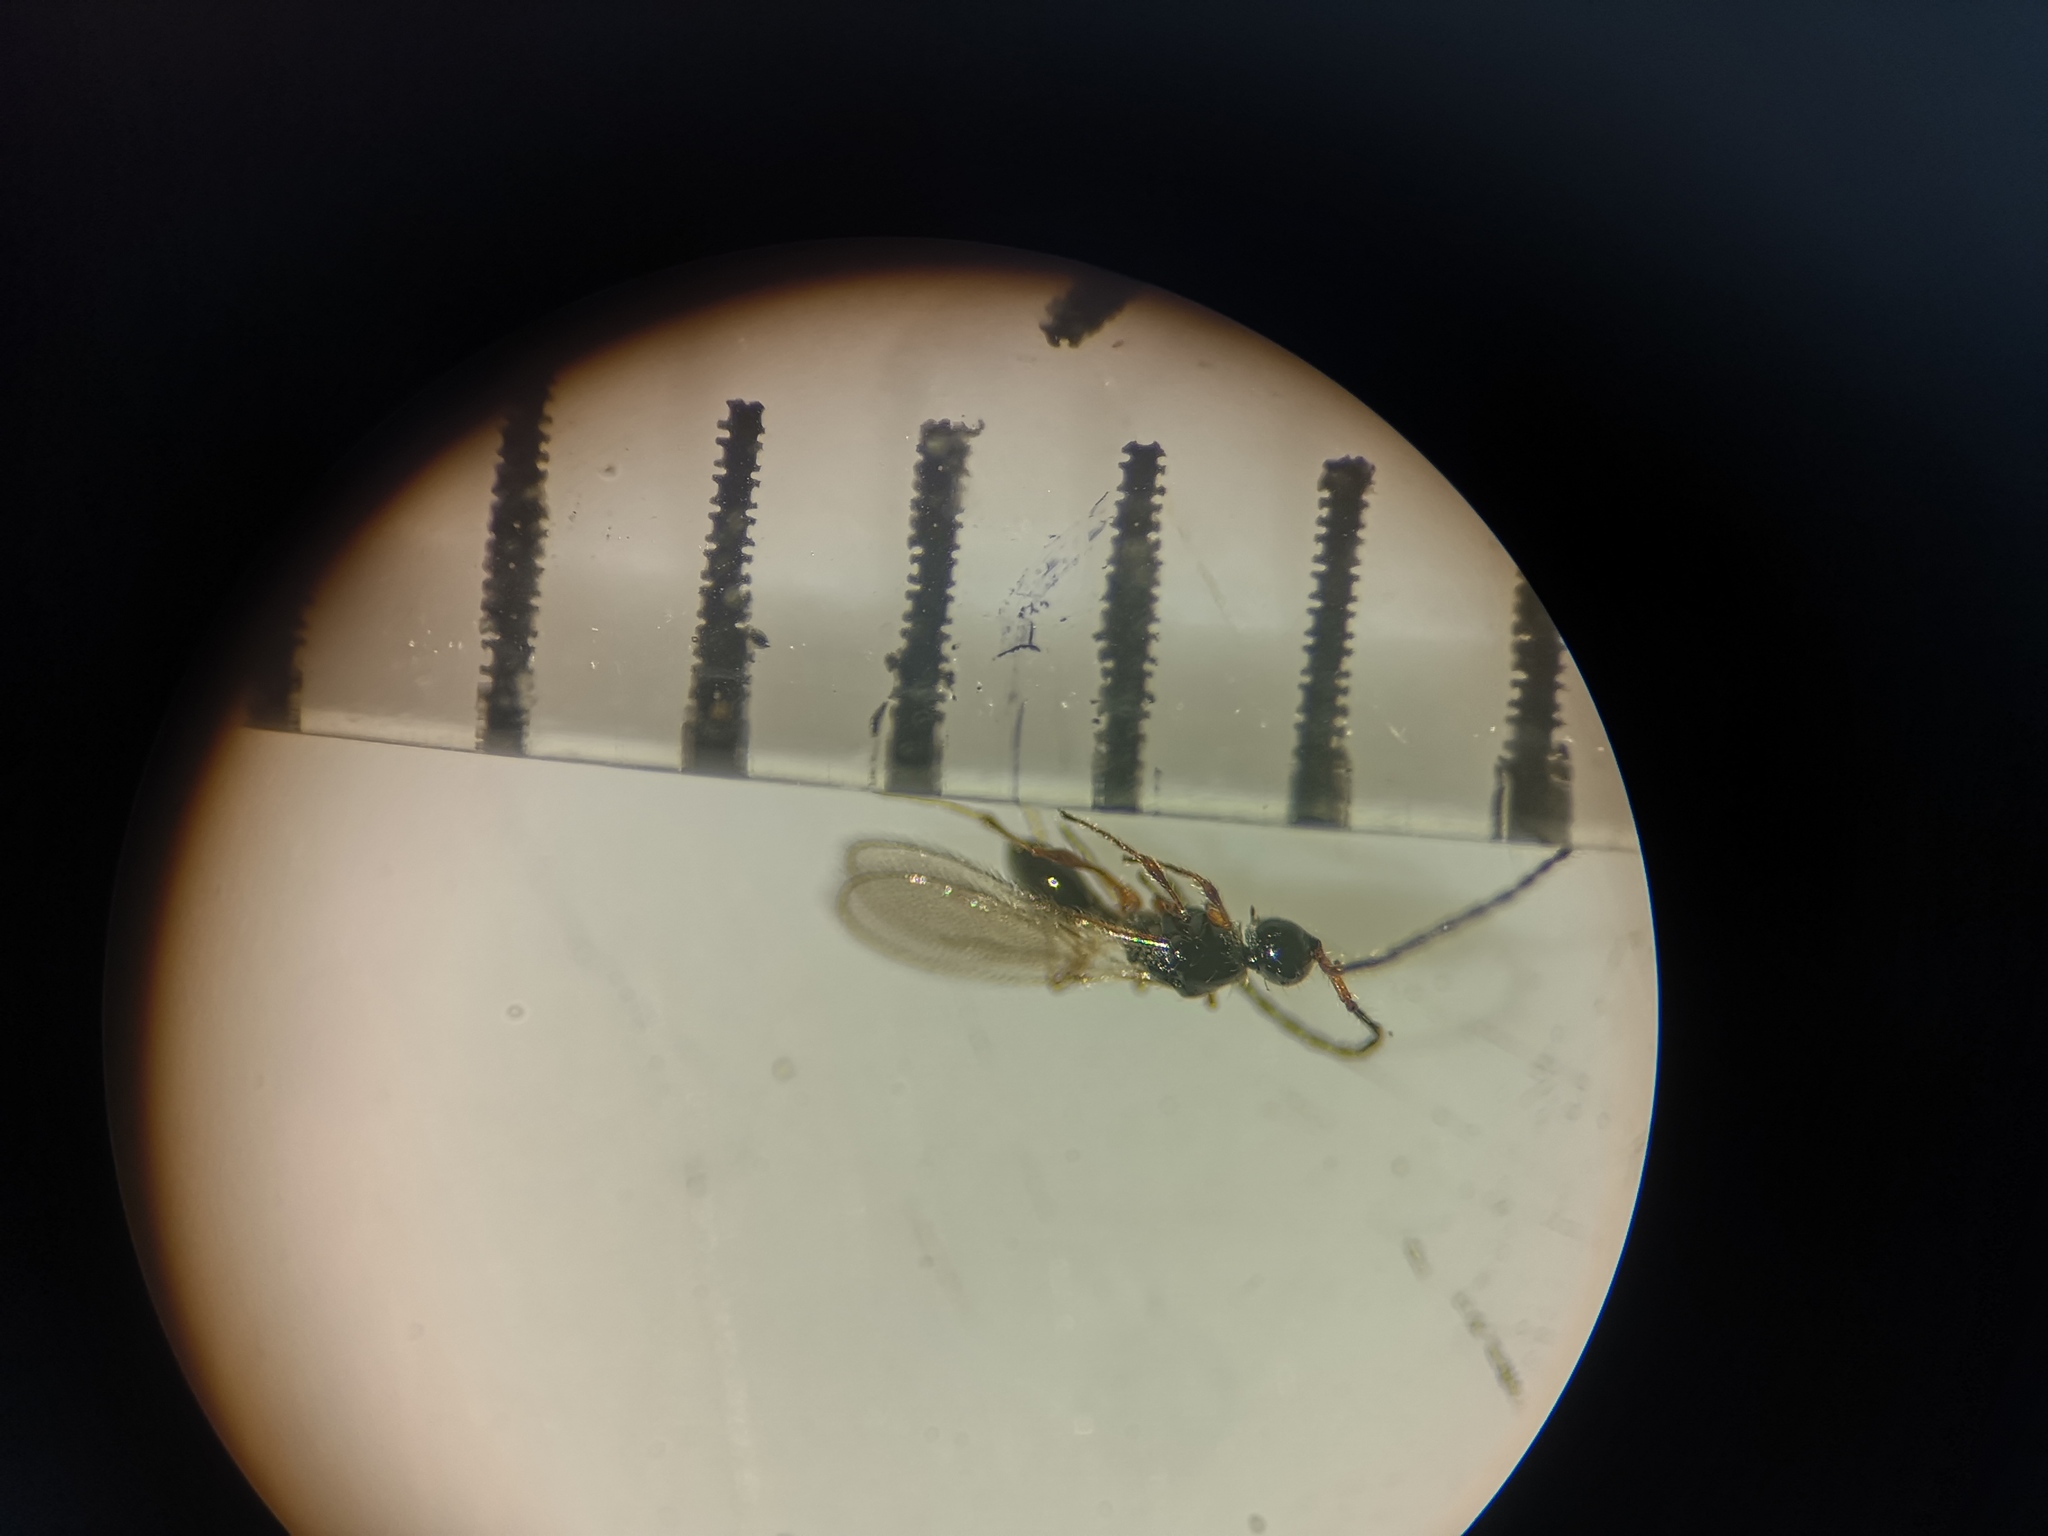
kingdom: Animalia
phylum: Arthropoda
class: Insecta
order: Hymenoptera
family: Diapriidae
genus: Trichopria
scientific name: Trichopria basalis
